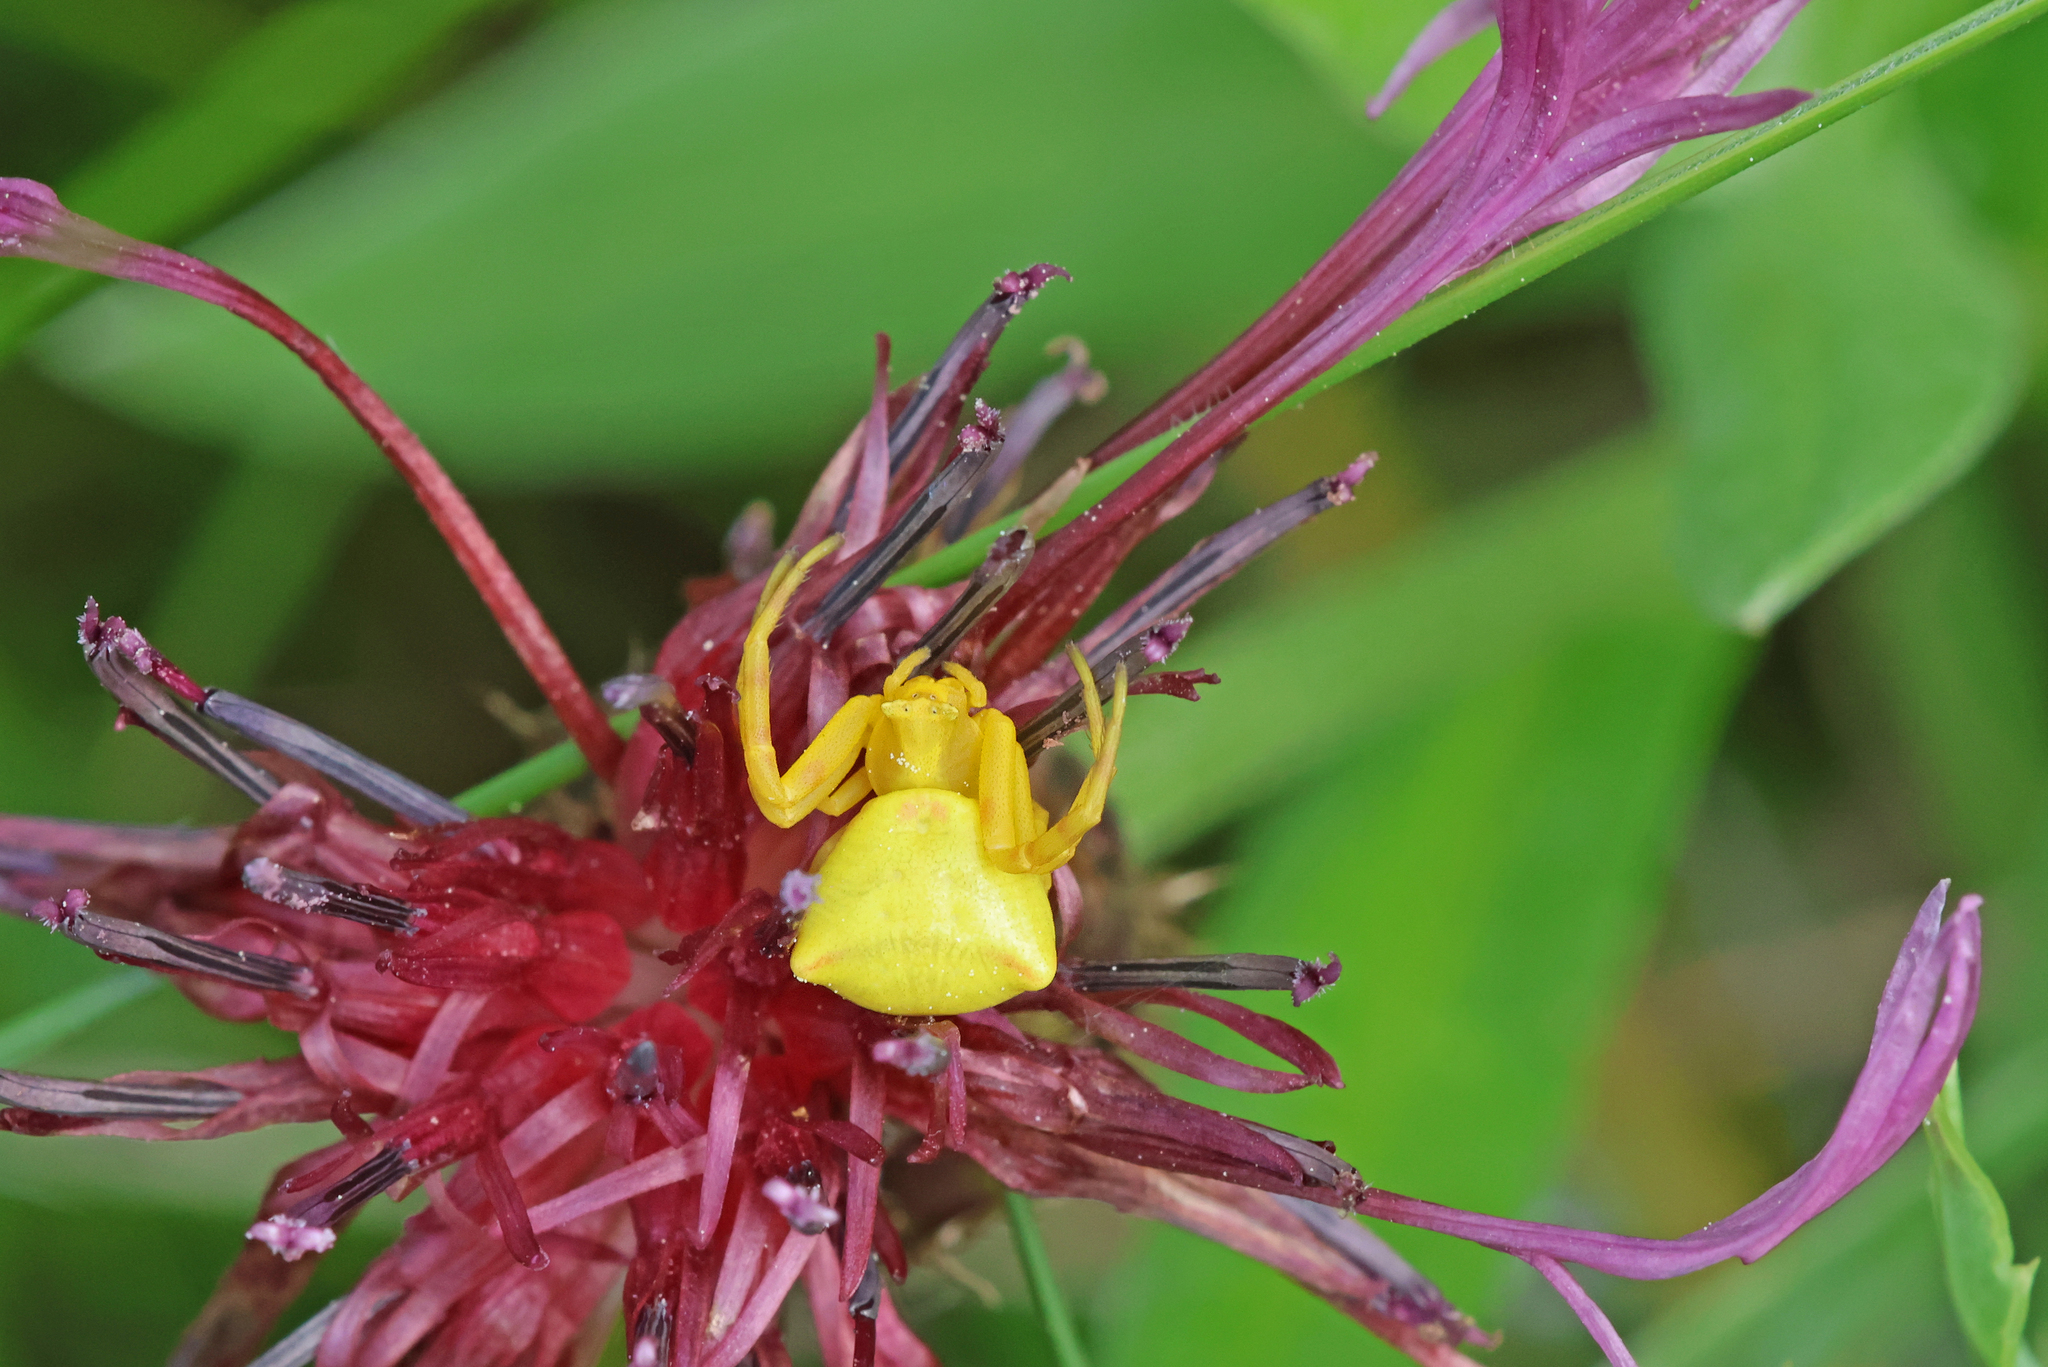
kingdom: Animalia
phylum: Arthropoda
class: Arachnida
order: Araneae
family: Thomisidae
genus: Thomisus
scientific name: Thomisus onustus
